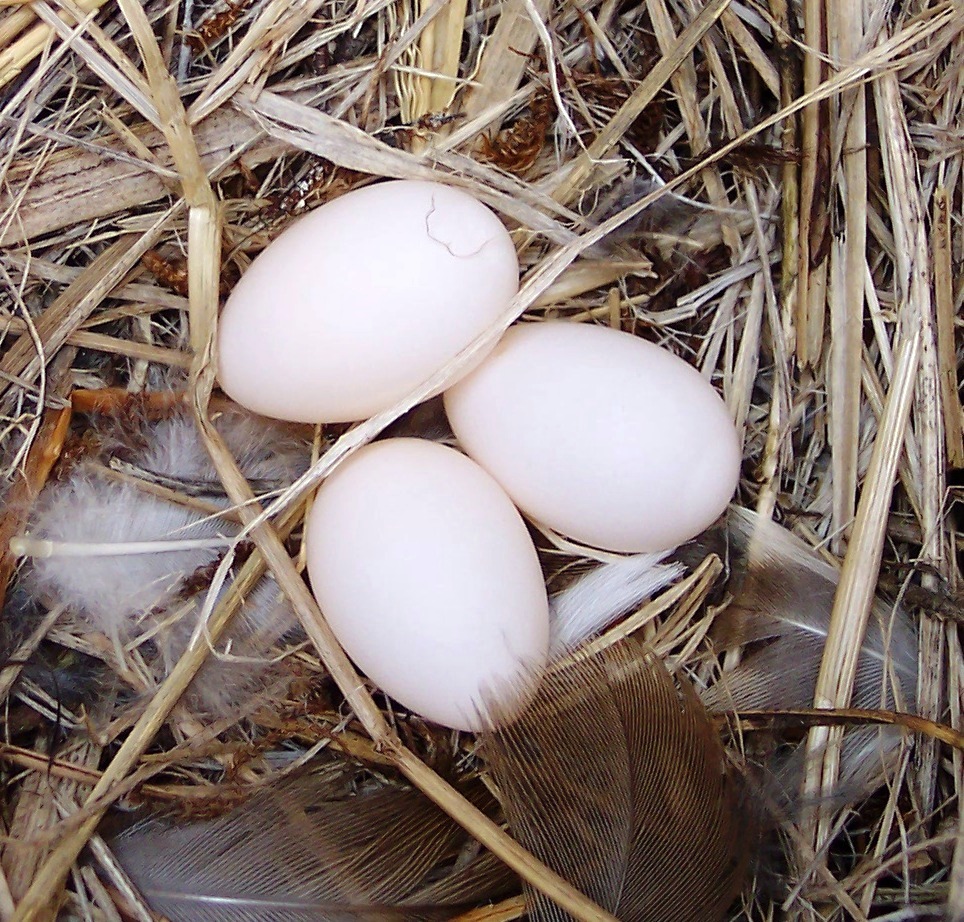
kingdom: Animalia
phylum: Chordata
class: Aves
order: Passeriformes
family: Hirundinidae
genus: Tachycineta
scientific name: Tachycineta bicolor
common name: Tree swallow
